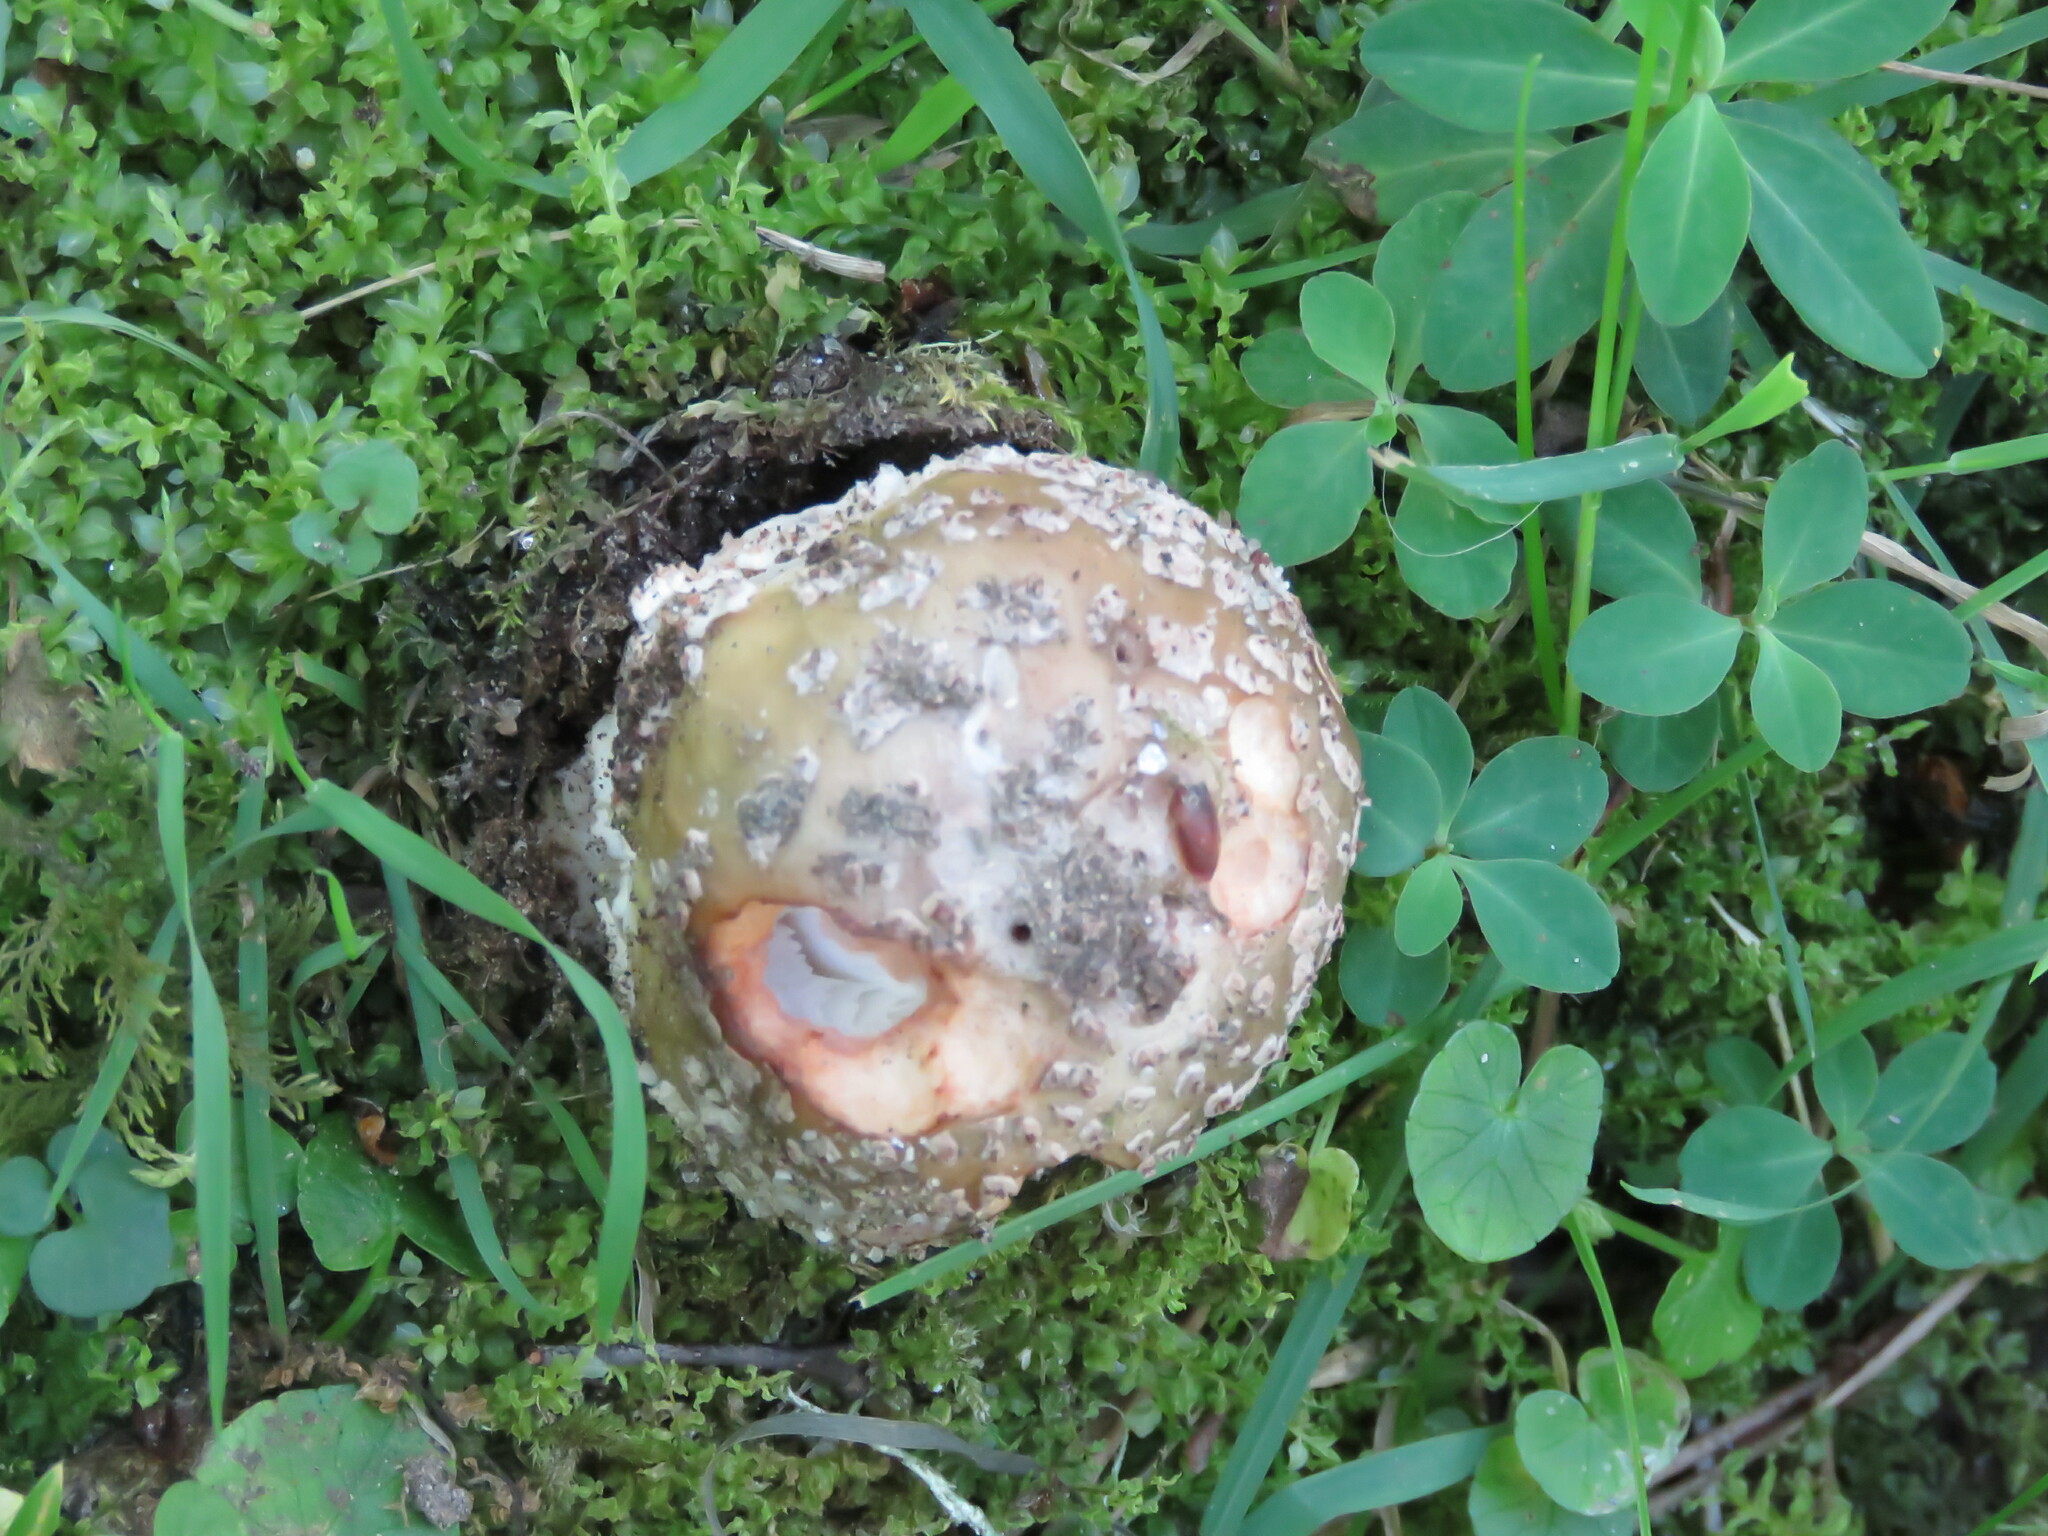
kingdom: Fungi
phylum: Basidiomycota
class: Agaricomycetes
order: Agaricales
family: Amanitaceae
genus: Amanita
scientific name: Amanita rubescens
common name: Blusher
